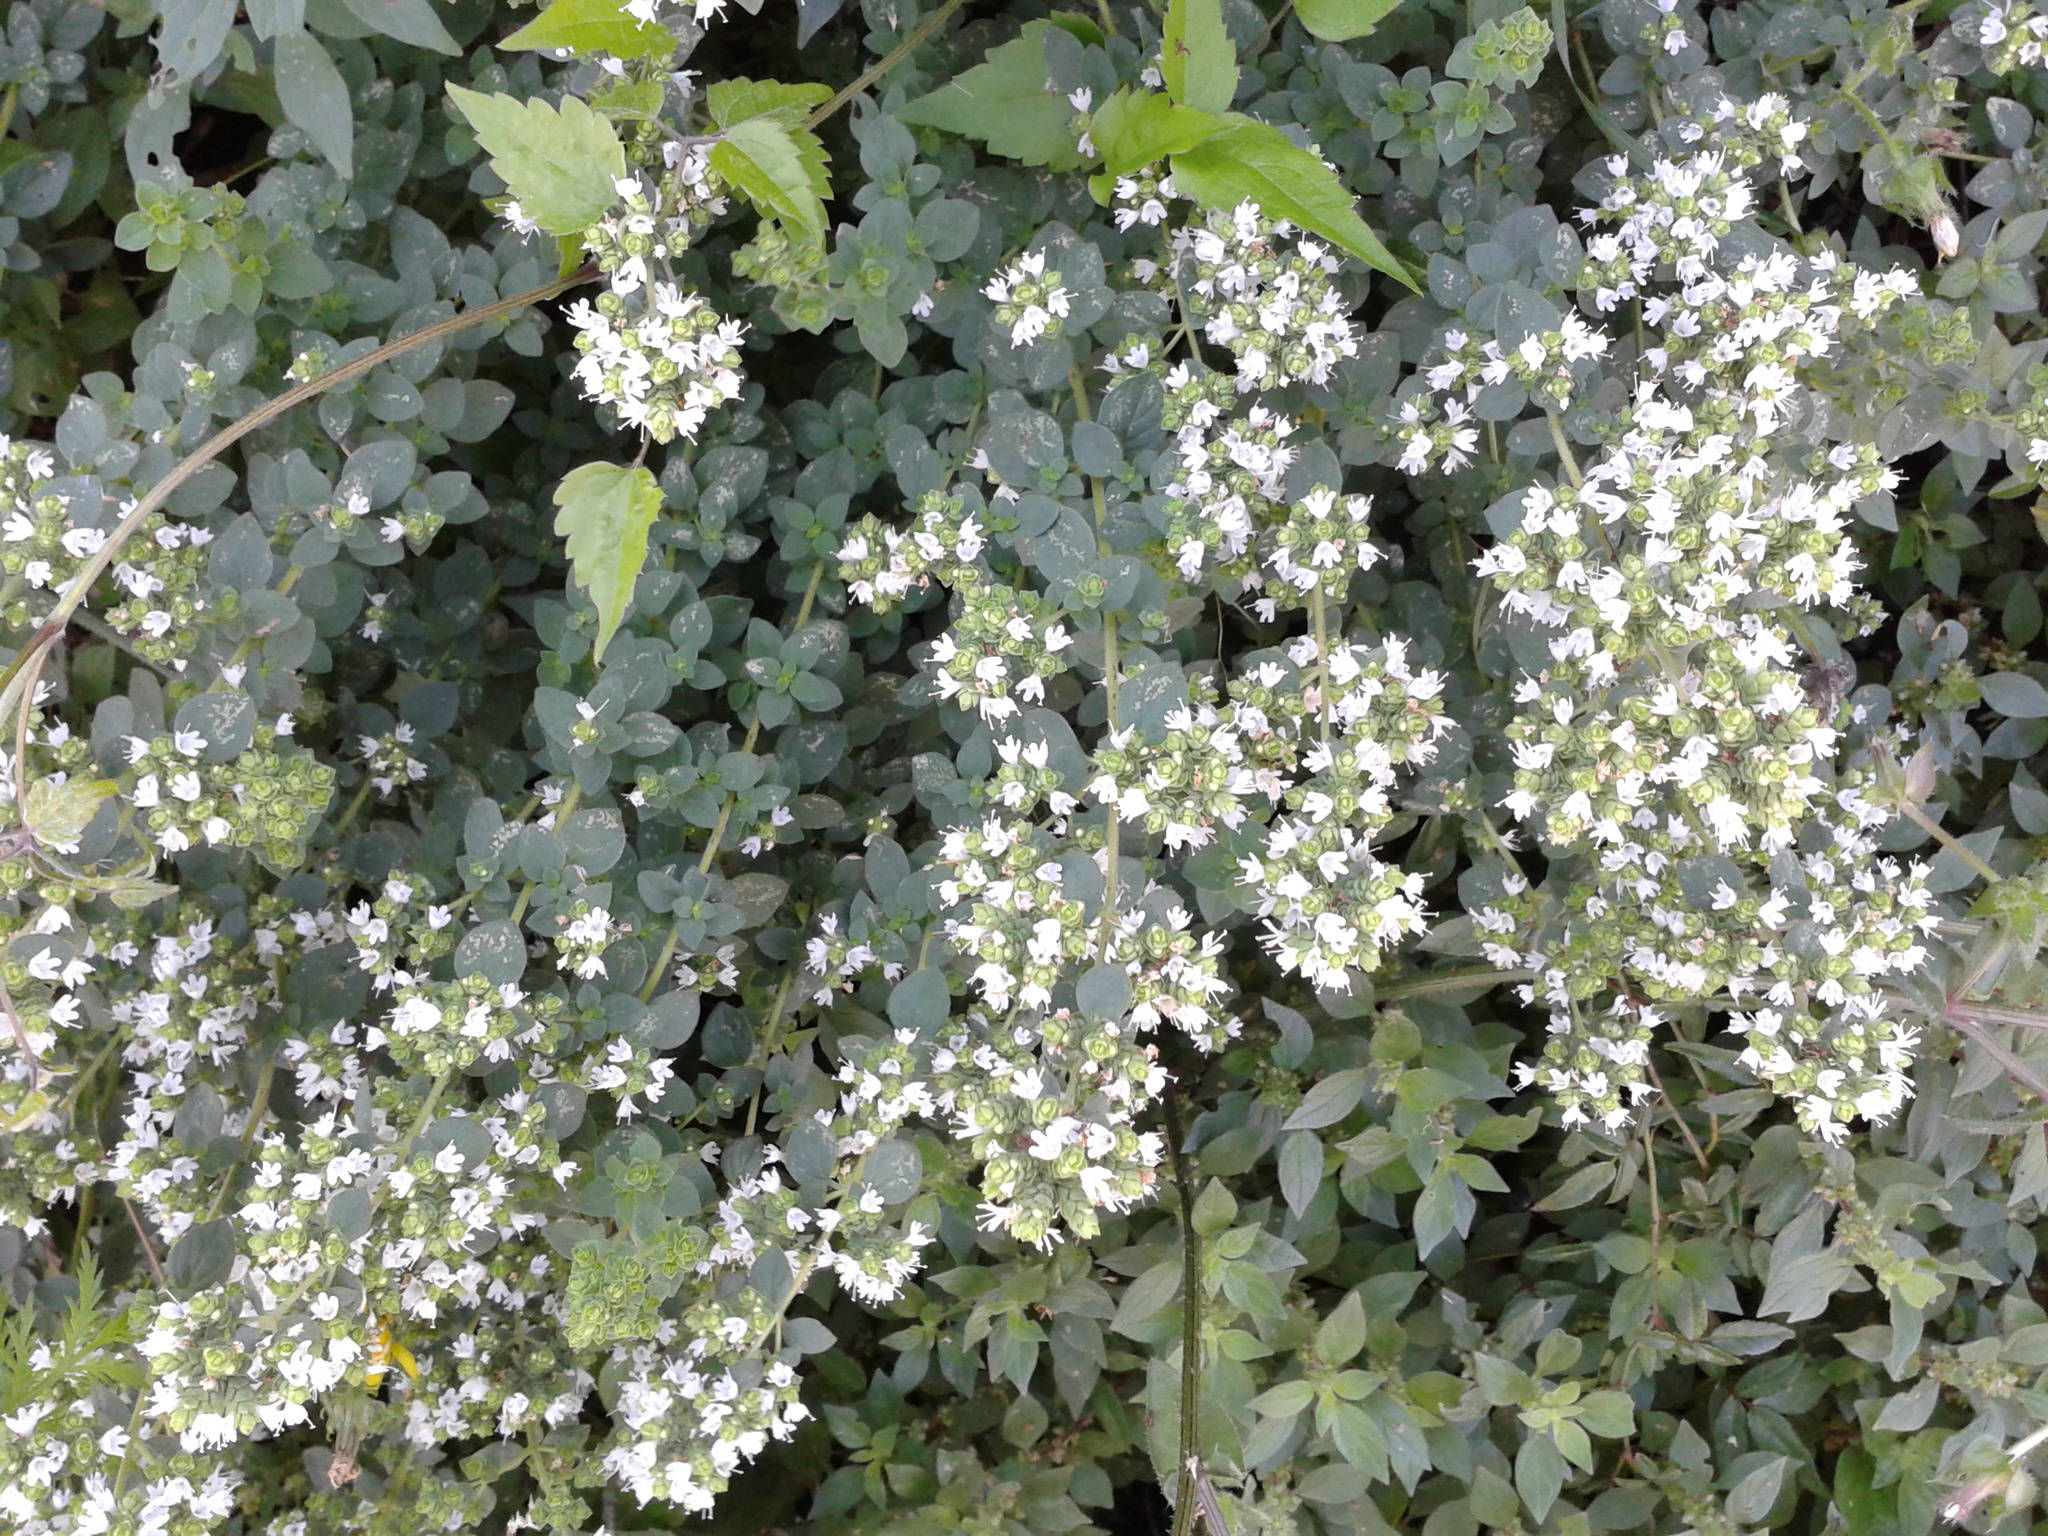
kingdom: Plantae
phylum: Tracheophyta
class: Magnoliopsida
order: Lamiales
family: Lamiaceae
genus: Origanum
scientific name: Origanum vulgare
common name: Wild marjoram
